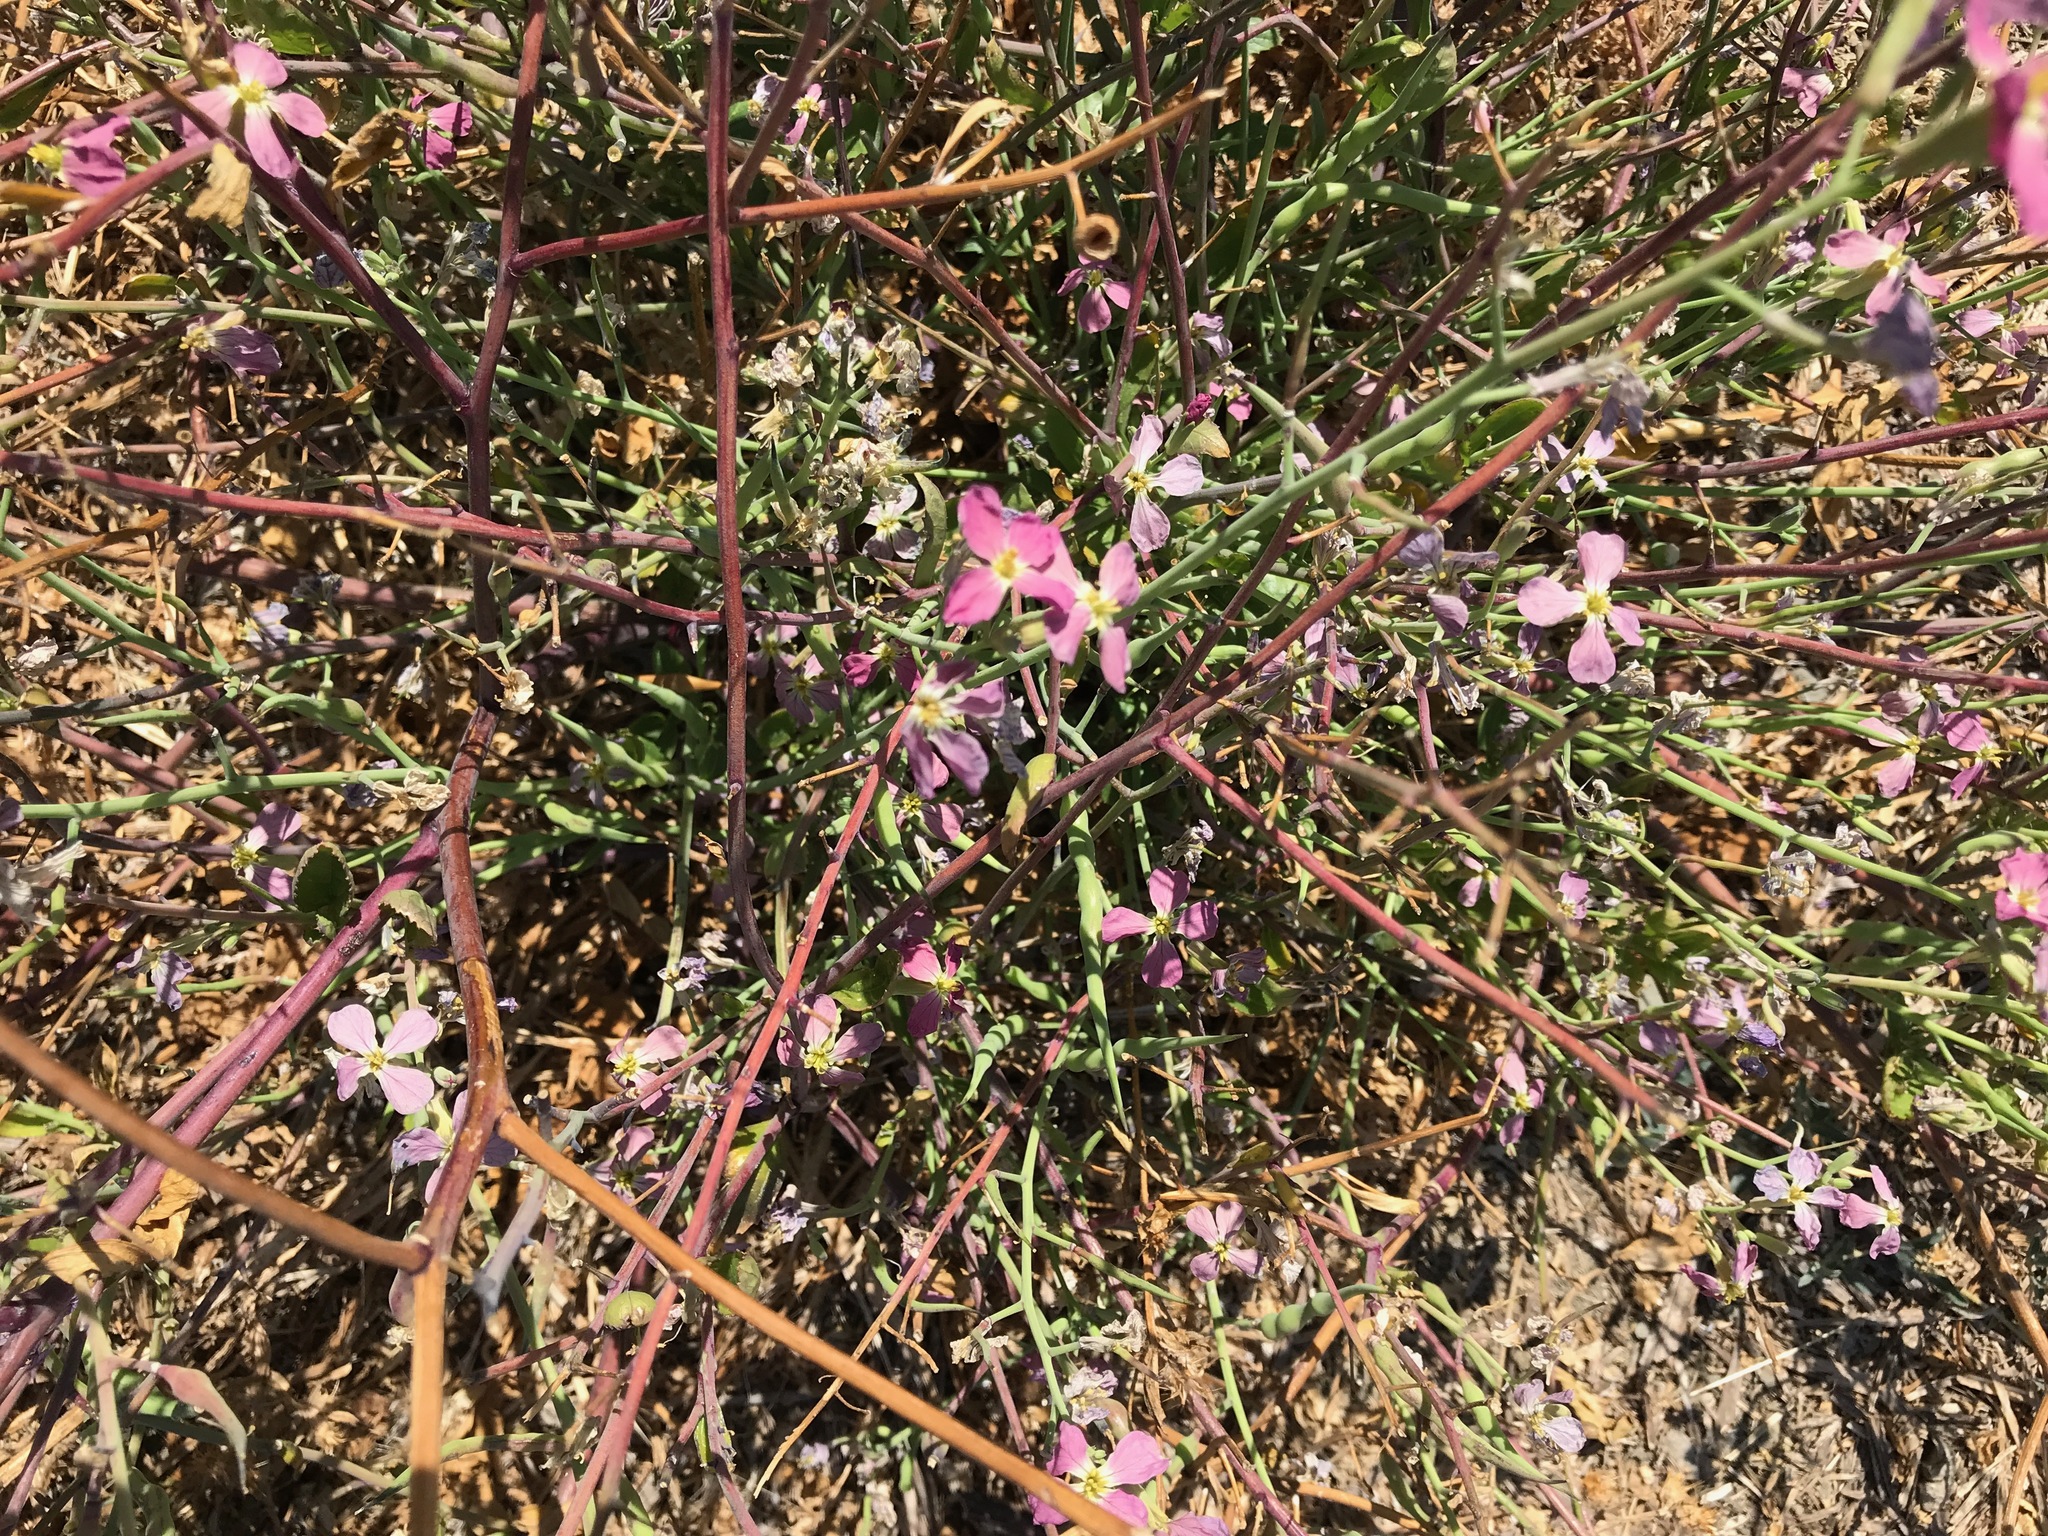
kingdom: Plantae
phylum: Tracheophyta
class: Magnoliopsida
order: Brassicales
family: Brassicaceae
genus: Raphanus
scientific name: Raphanus sativus
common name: Cultivated radish
